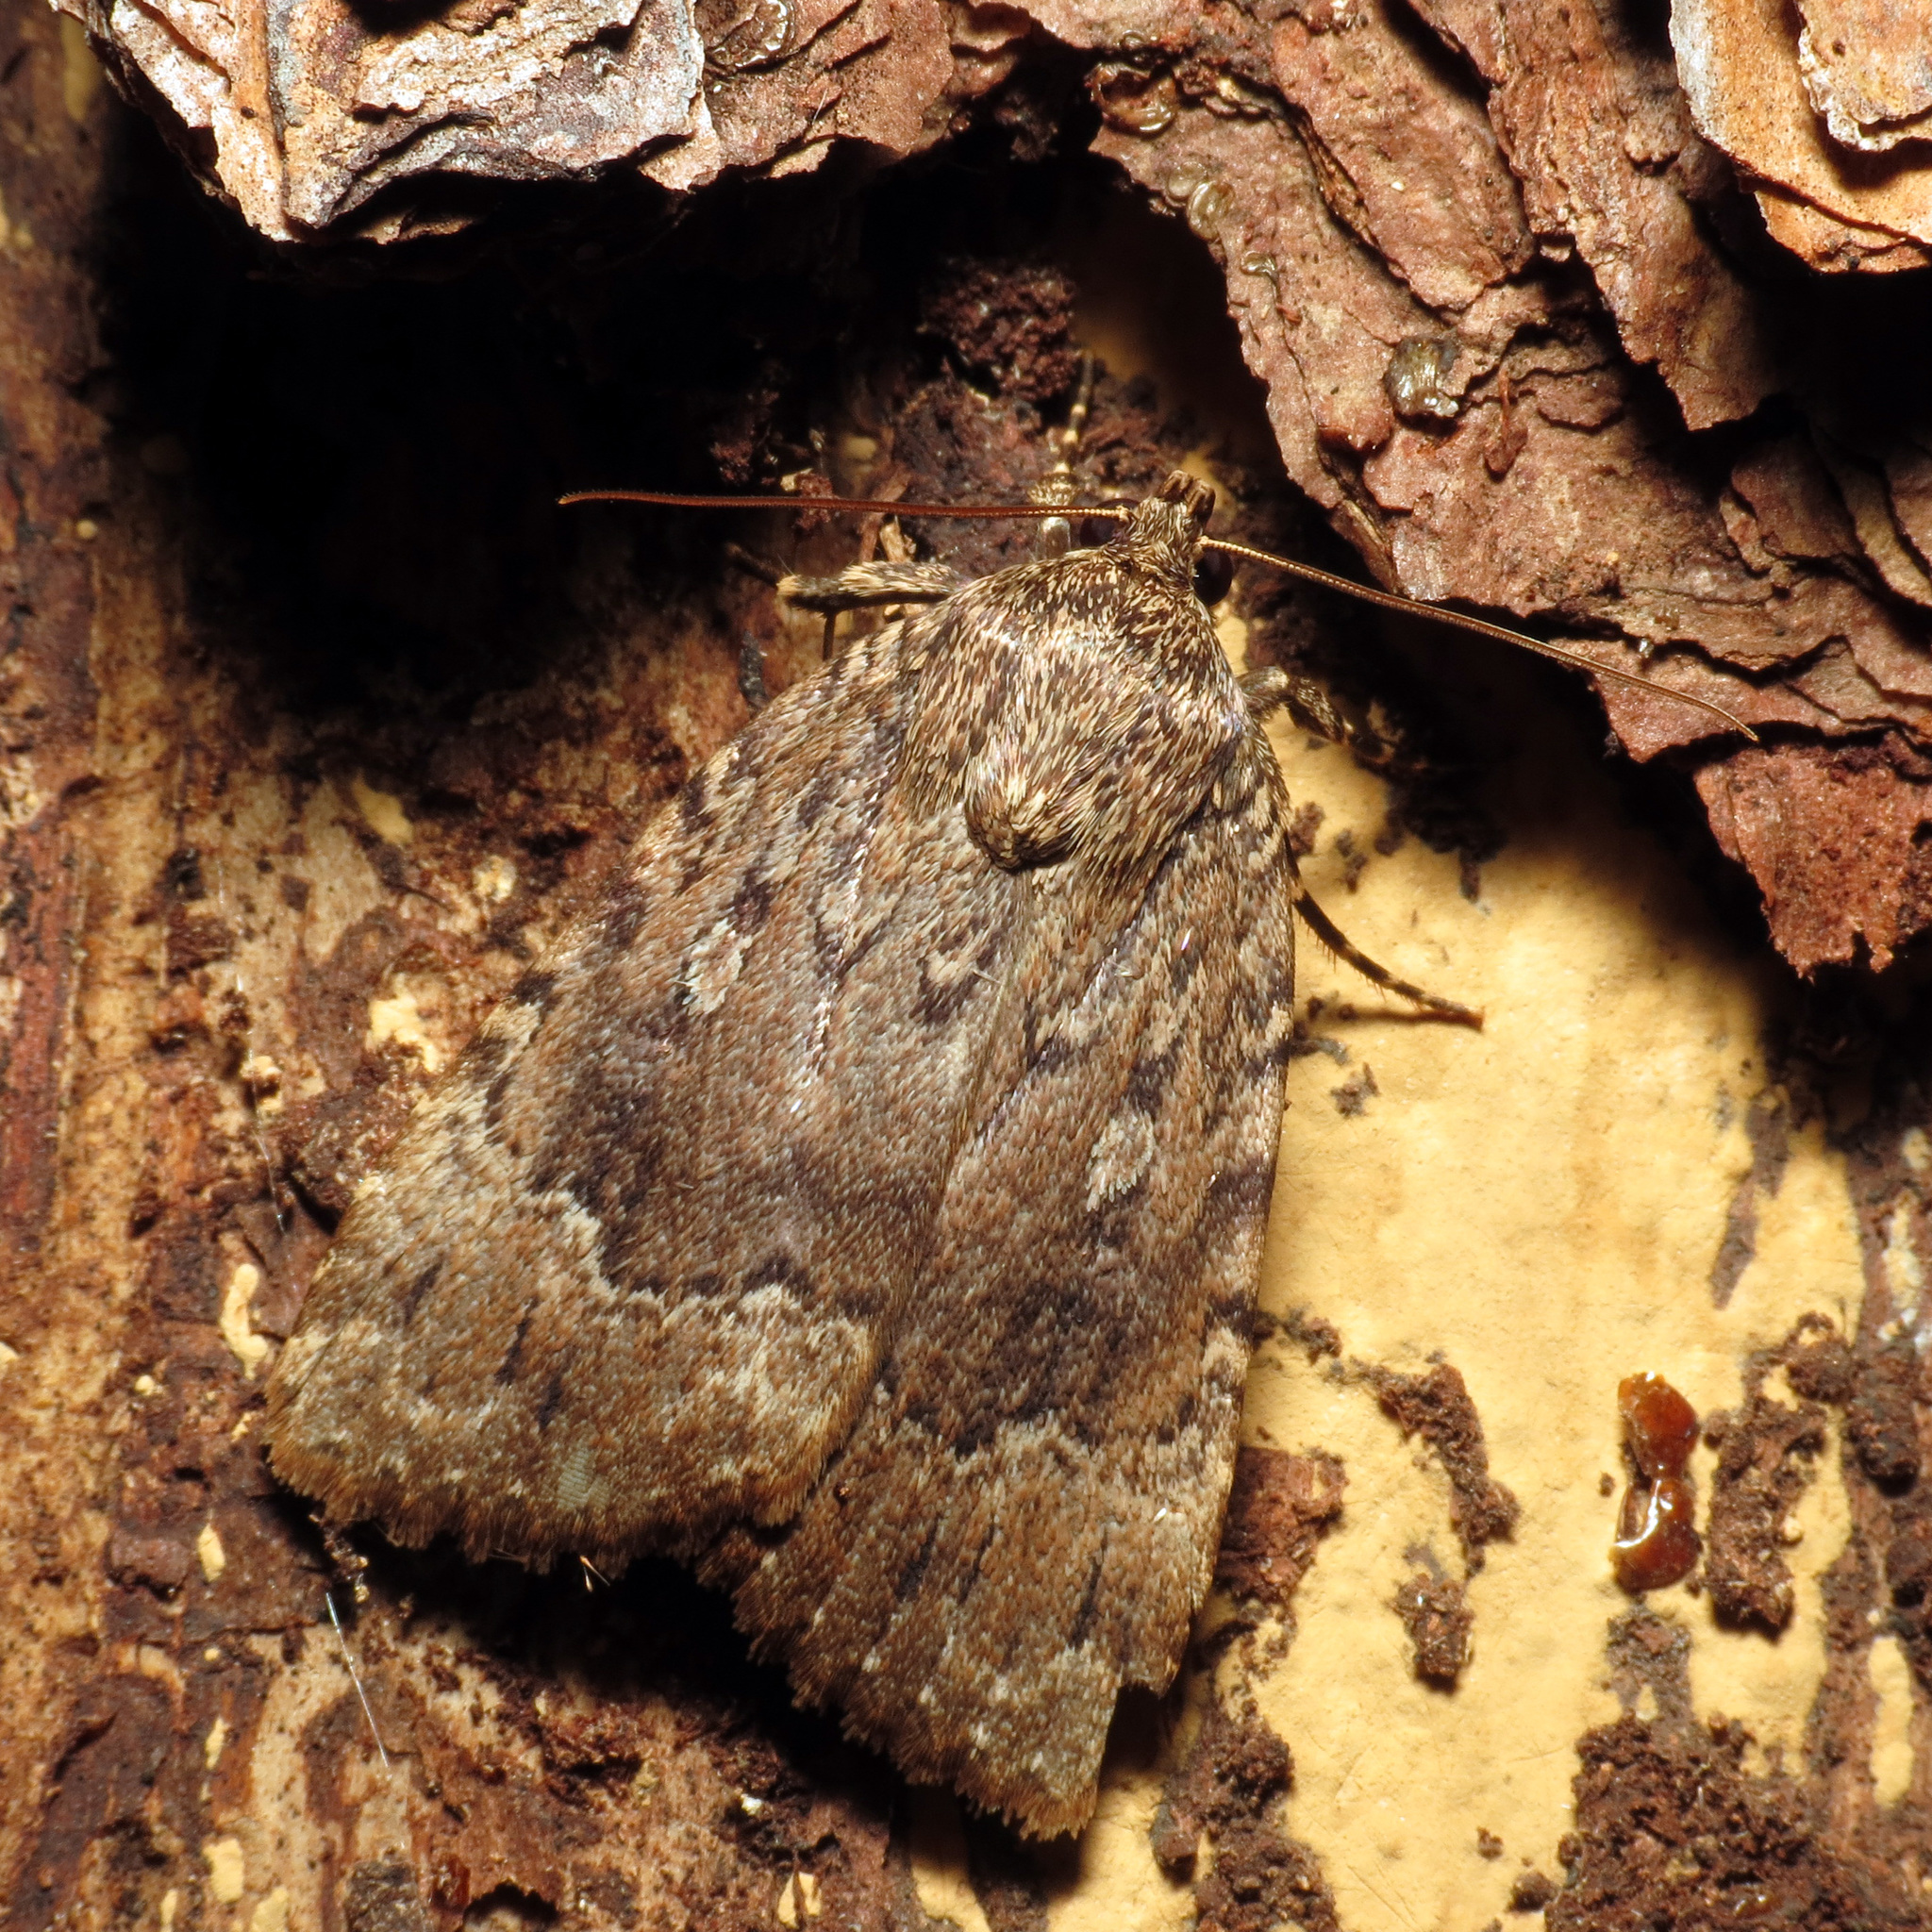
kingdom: Animalia
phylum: Arthropoda
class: Insecta
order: Lepidoptera
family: Noctuidae
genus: Amphipyra
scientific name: Amphipyra pyramidoides
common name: American copper underwing
